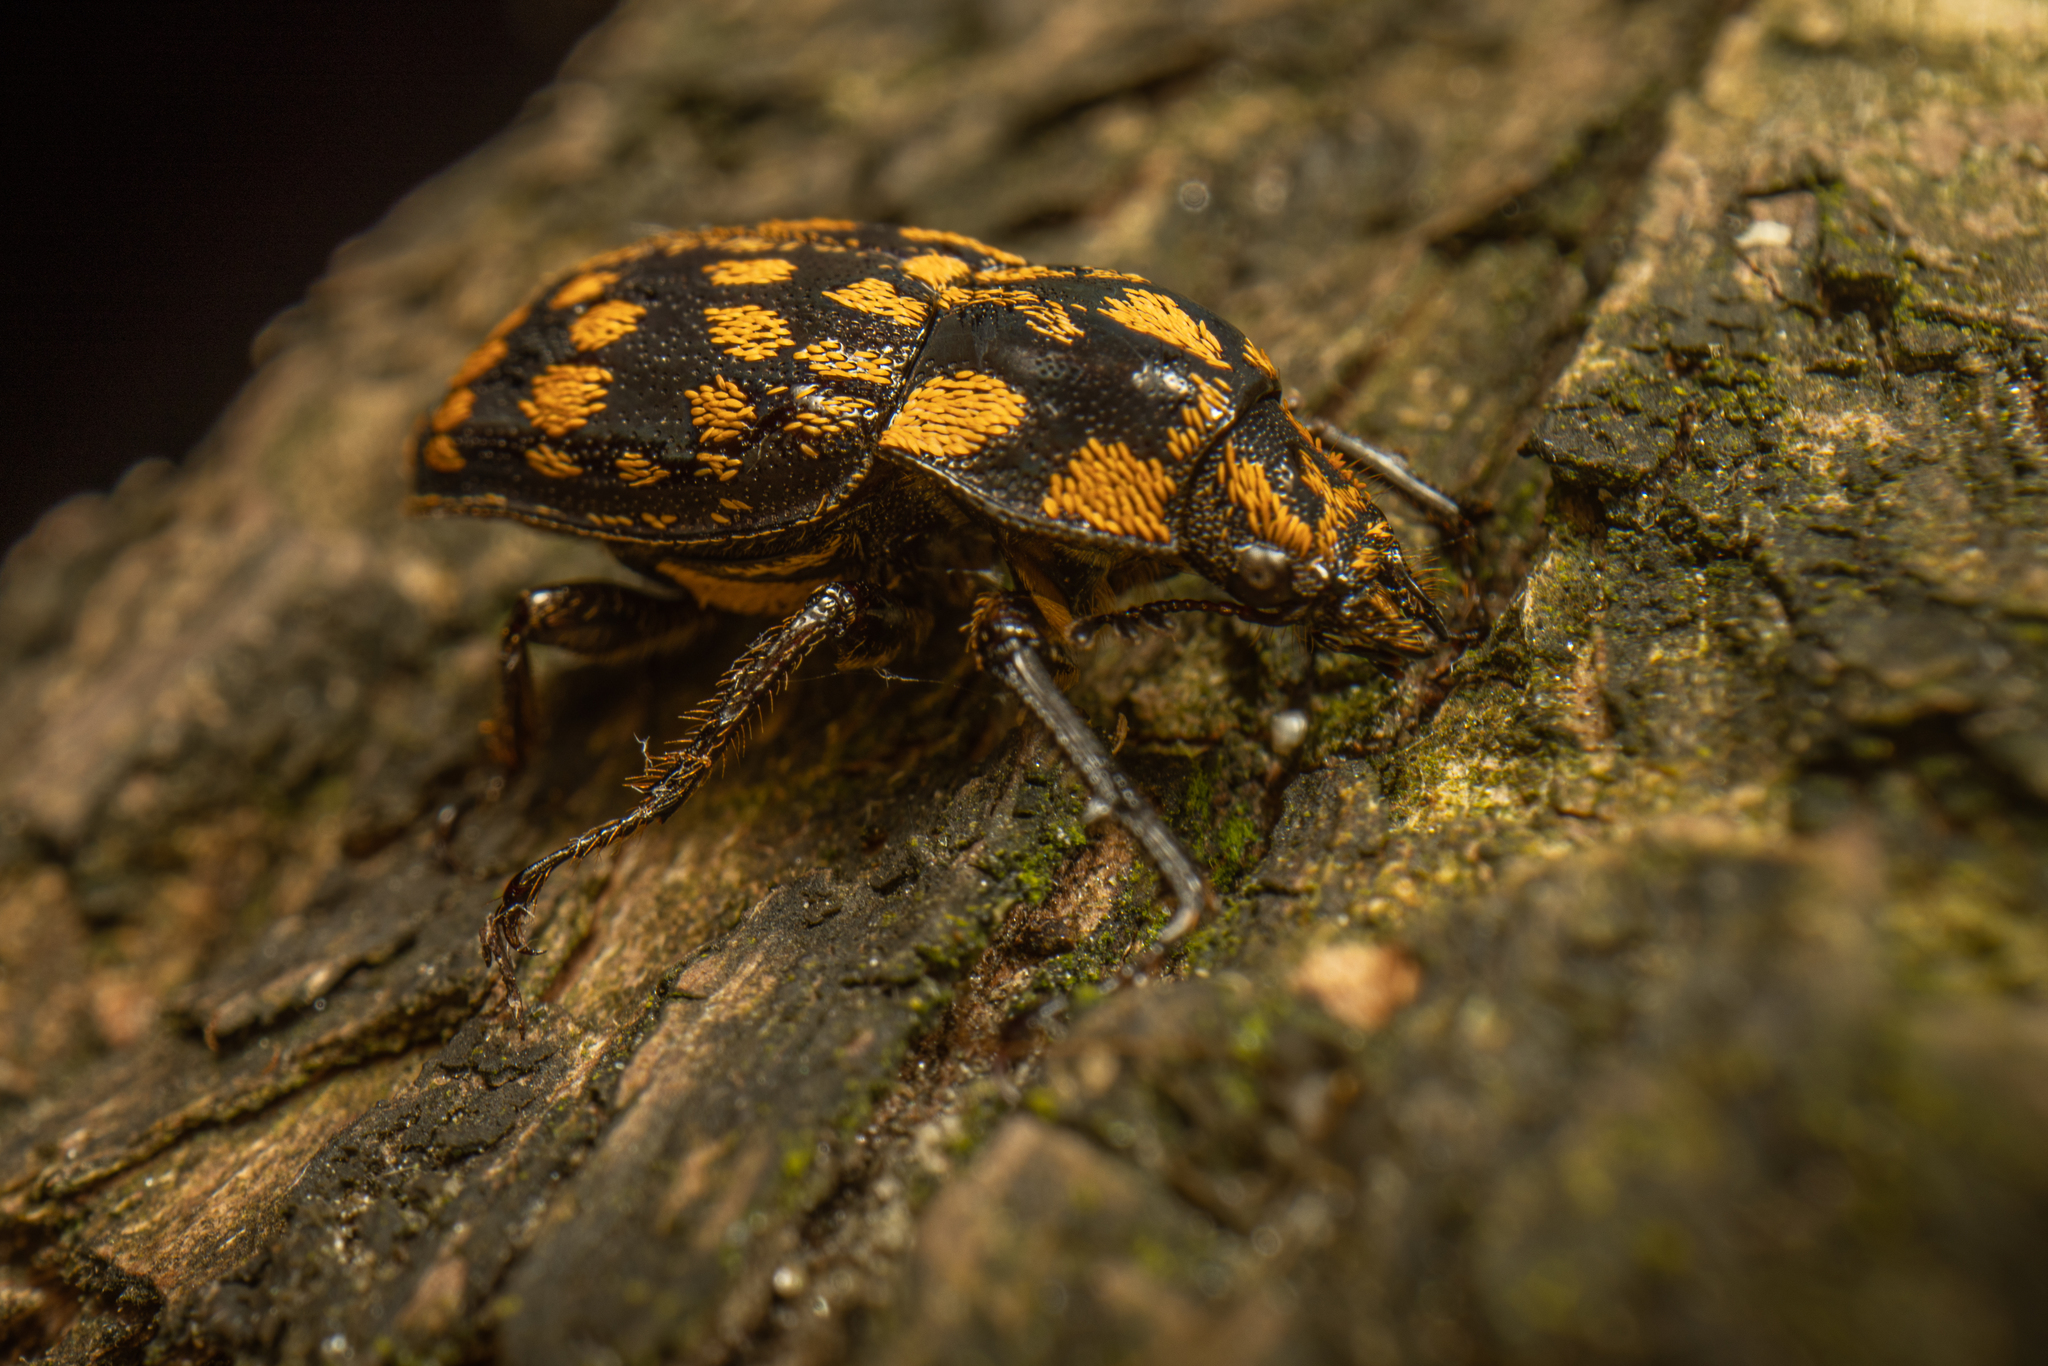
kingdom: Animalia
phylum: Arthropoda
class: Insecta
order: Coleoptera
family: Lucanidae
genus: Mitophyllus
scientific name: Mitophyllus foveolatus
